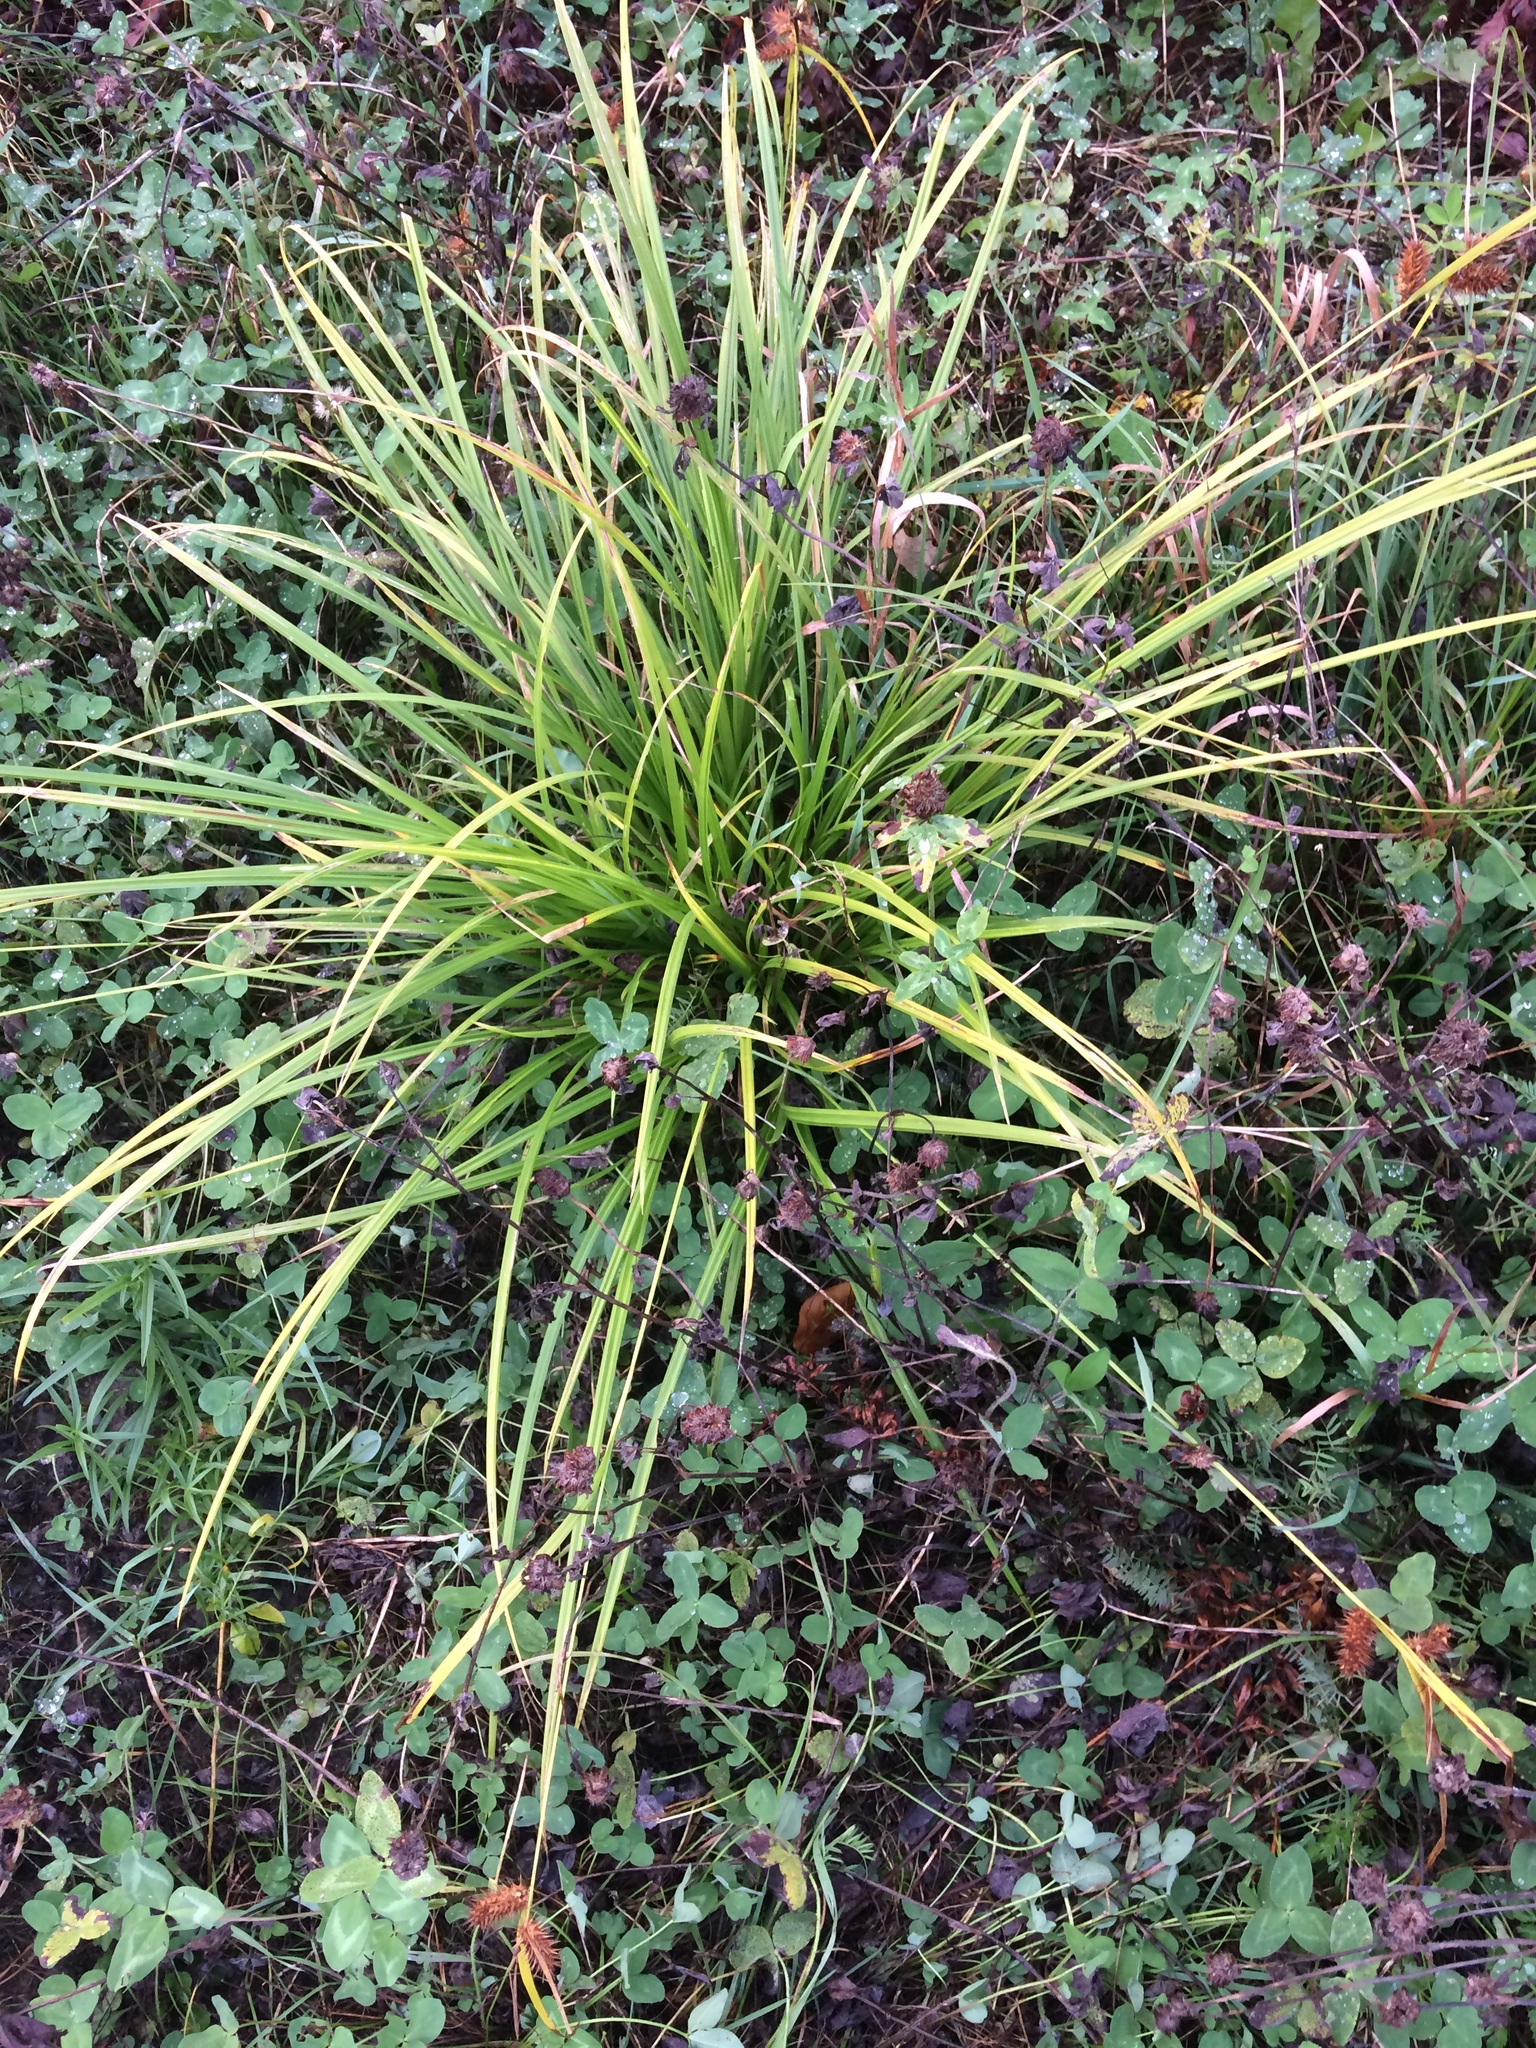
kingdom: Plantae
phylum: Tracheophyta
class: Liliopsida
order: Poales
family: Cyperaceae
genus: Carex
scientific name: Carex lurida
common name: Sallow sedge
